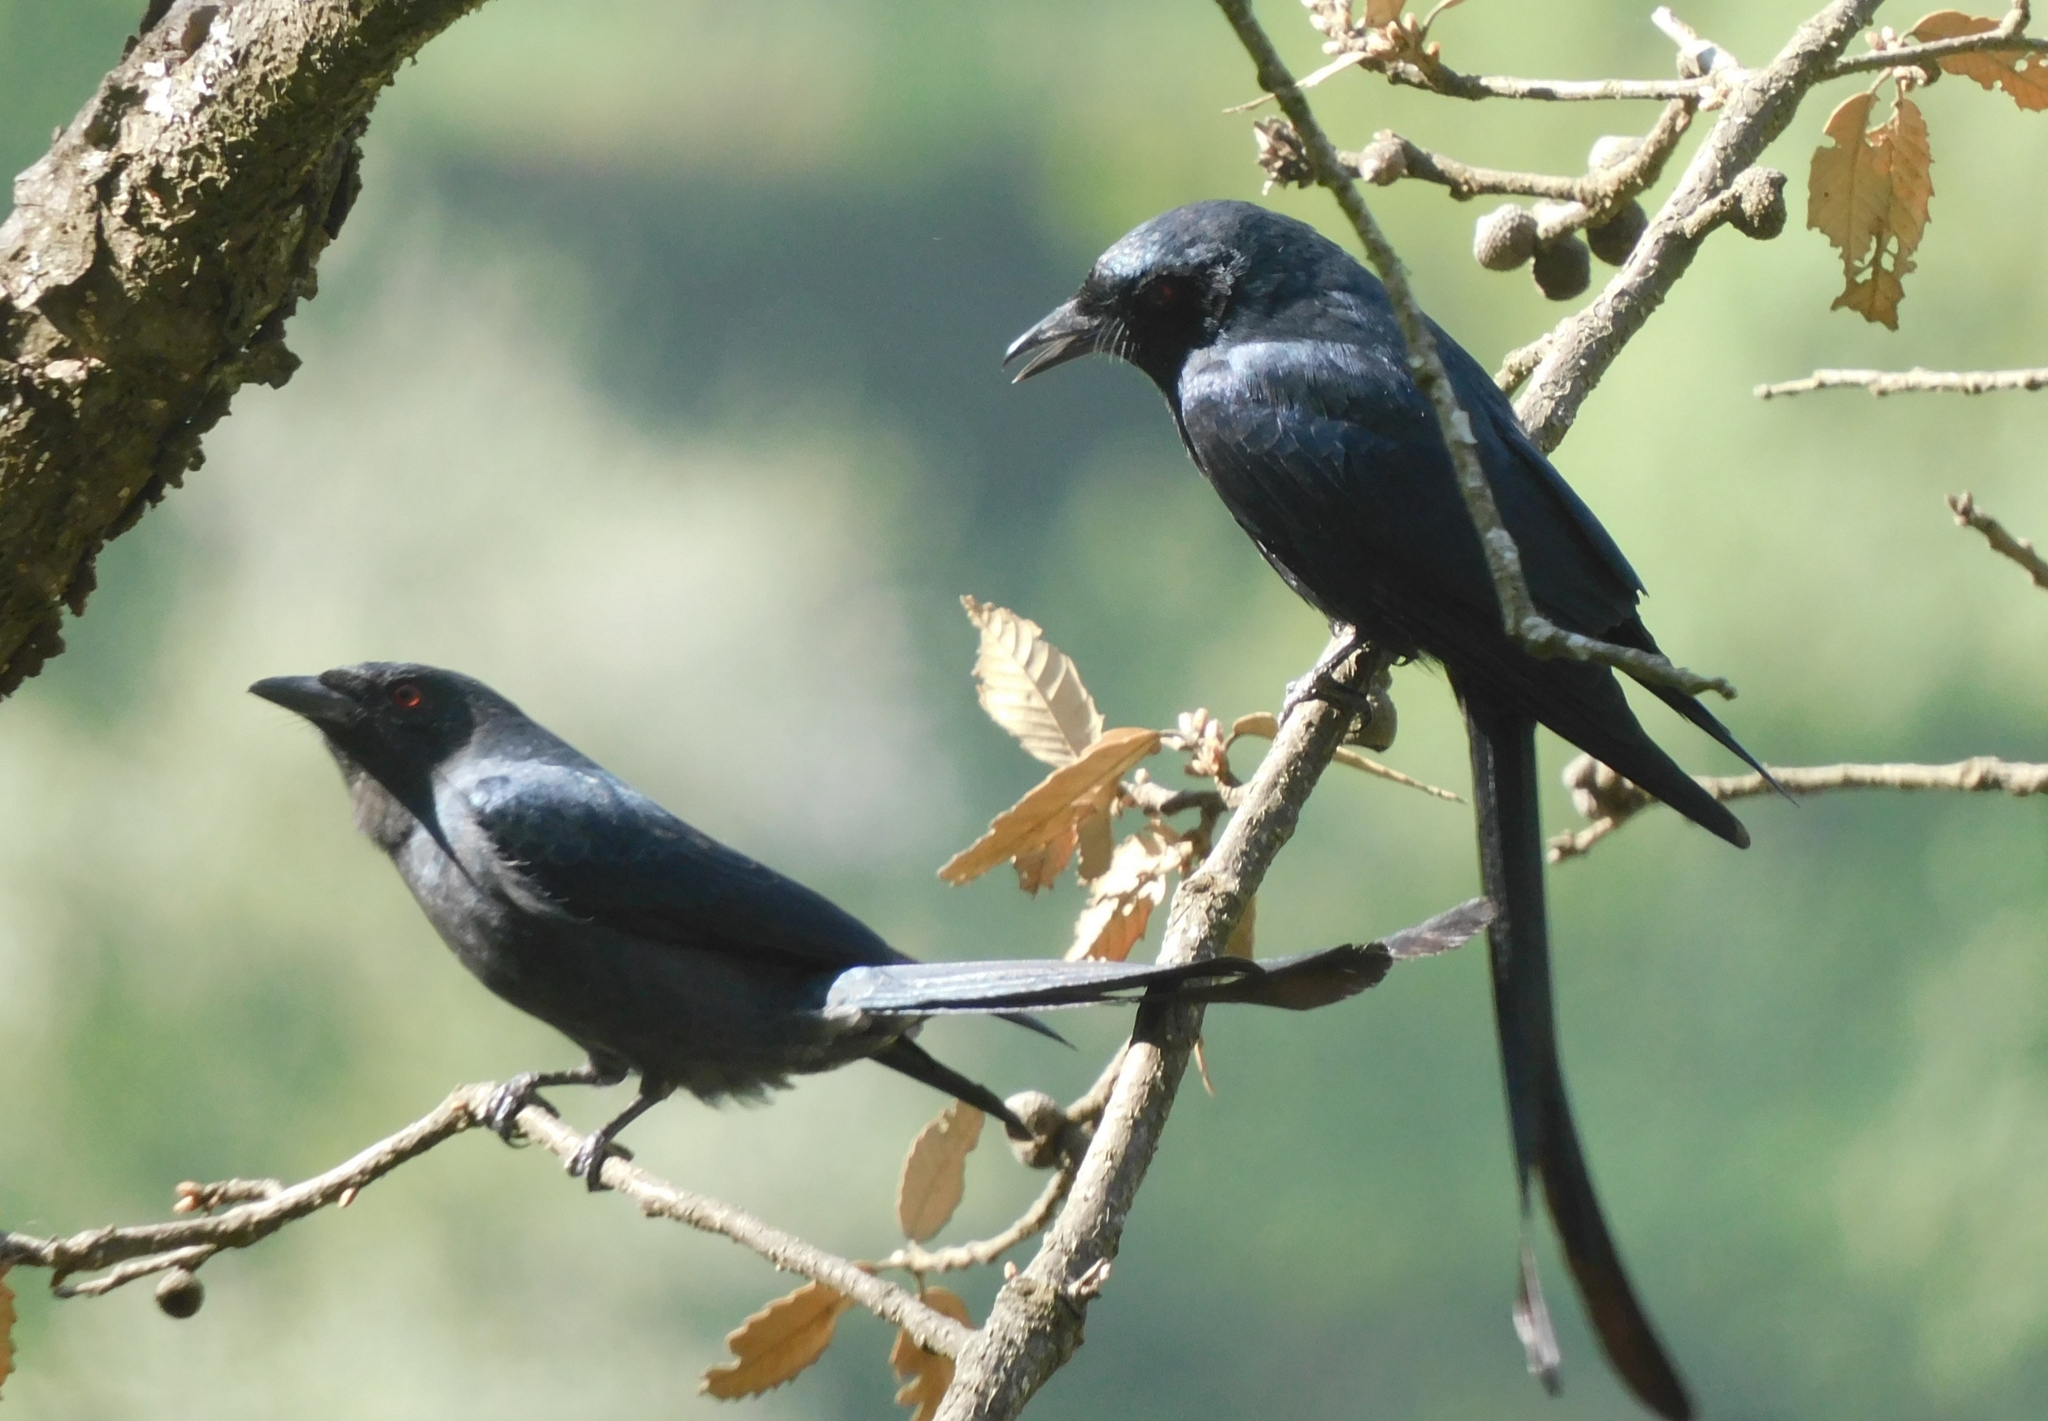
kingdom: Animalia
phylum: Chordata
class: Aves
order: Passeriformes
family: Dicruridae
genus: Dicrurus
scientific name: Dicrurus leucophaeus
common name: Ashy drongo
